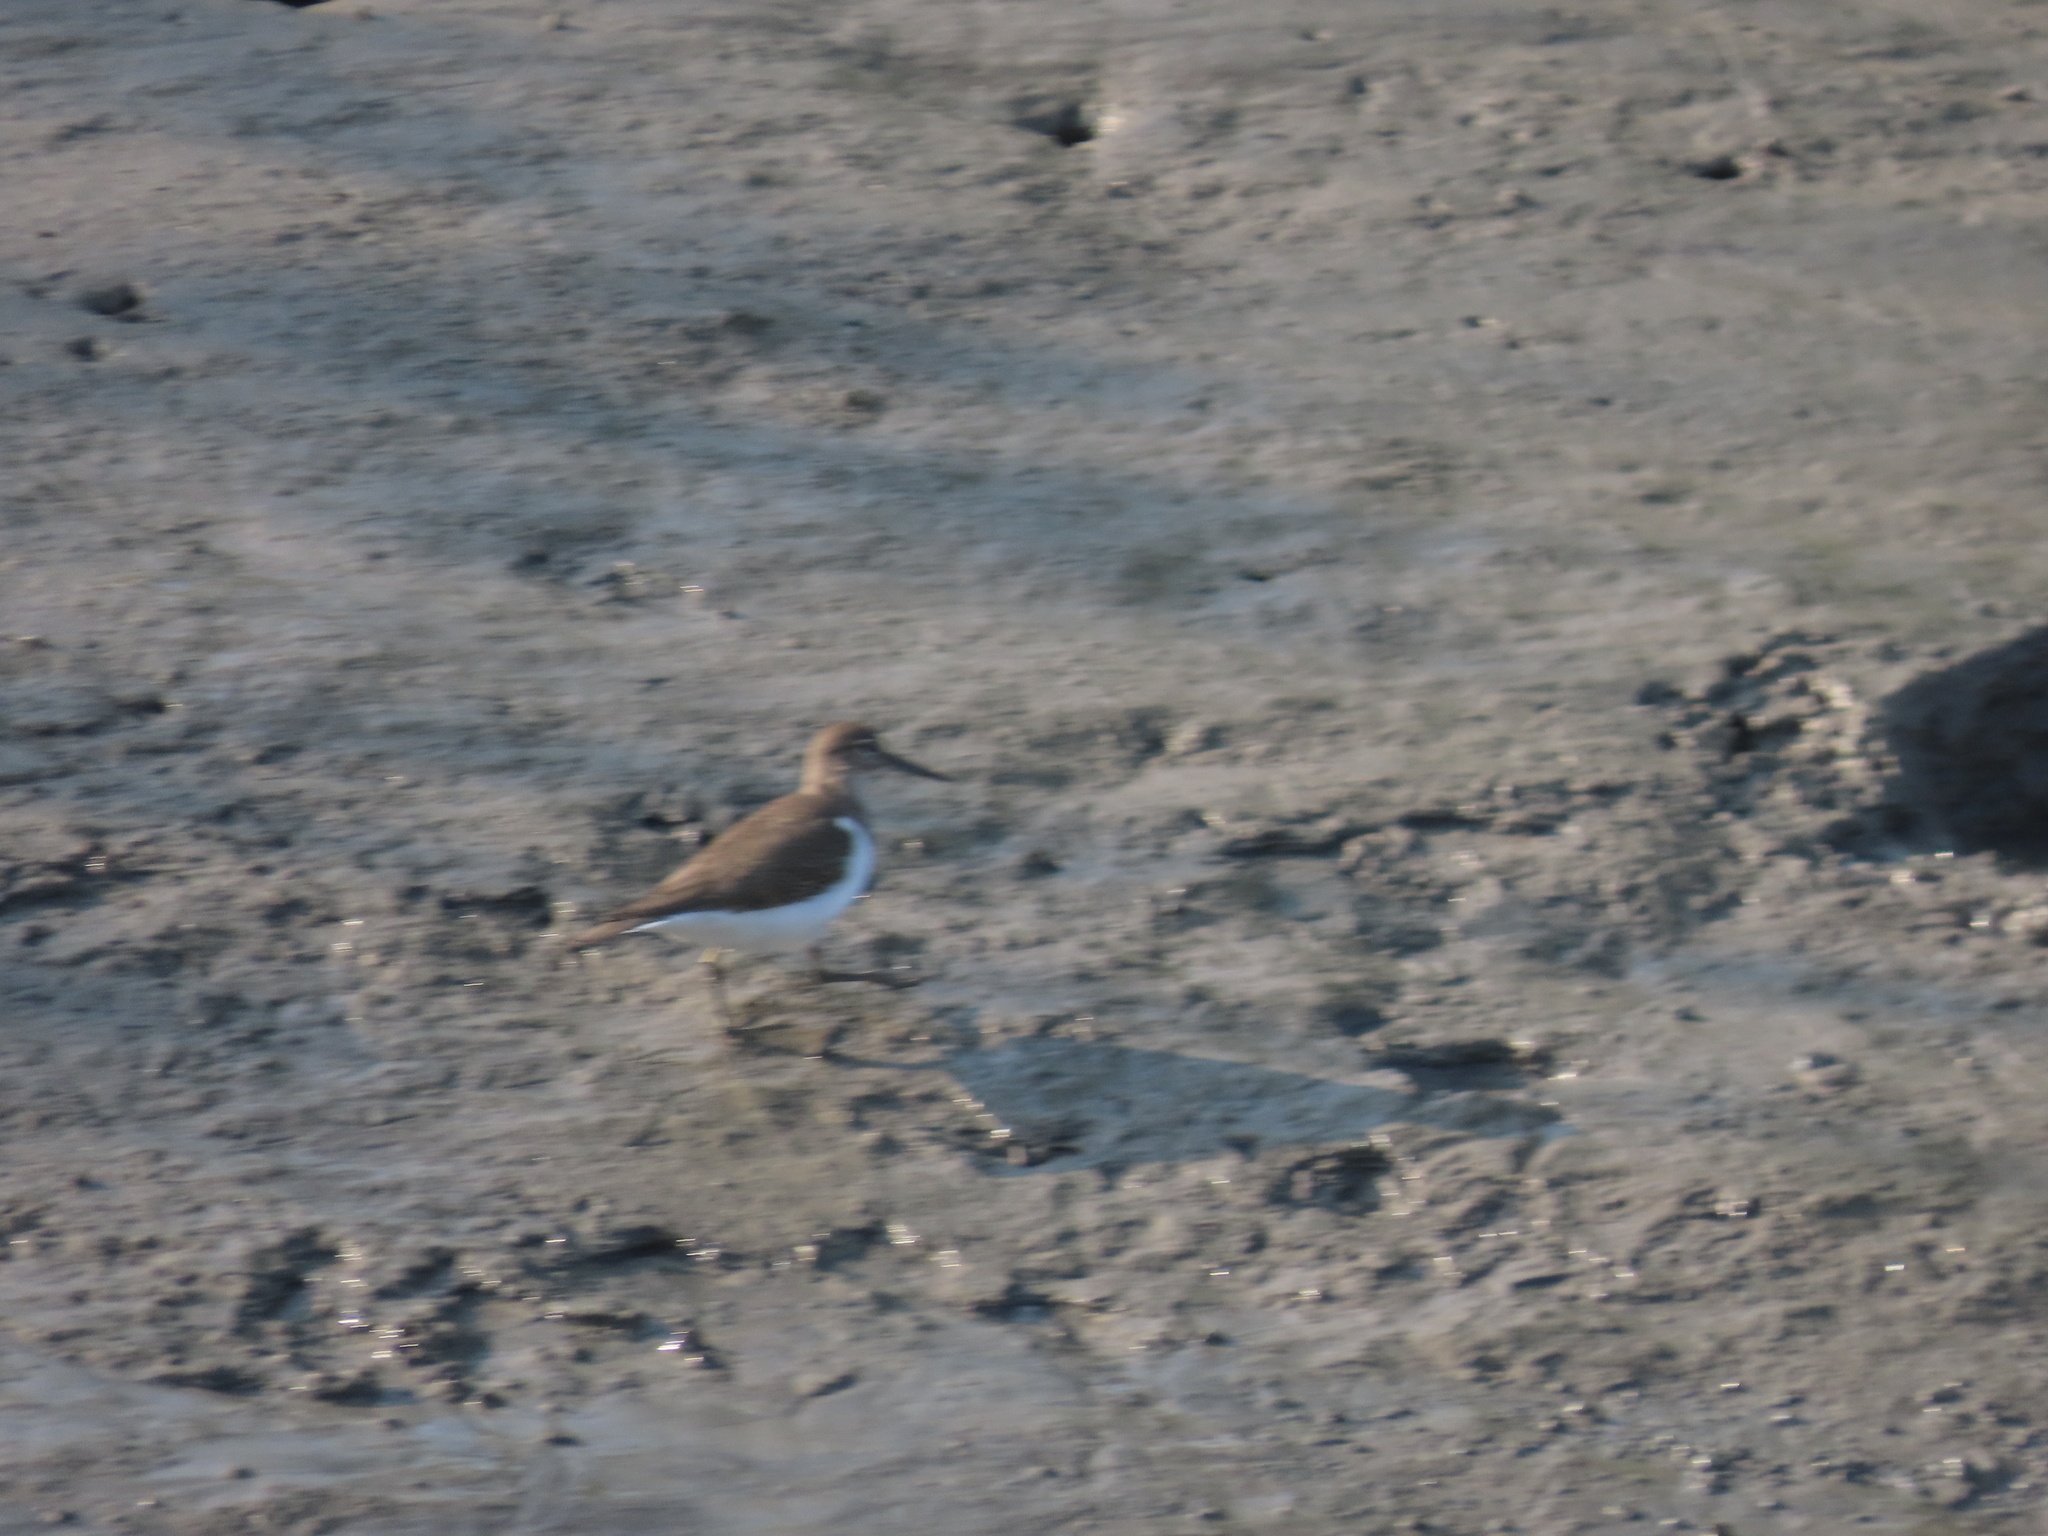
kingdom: Animalia
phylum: Chordata
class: Aves
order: Charadriiformes
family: Scolopacidae
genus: Actitis
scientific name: Actitis hypoleucos
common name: Common sandpiper
